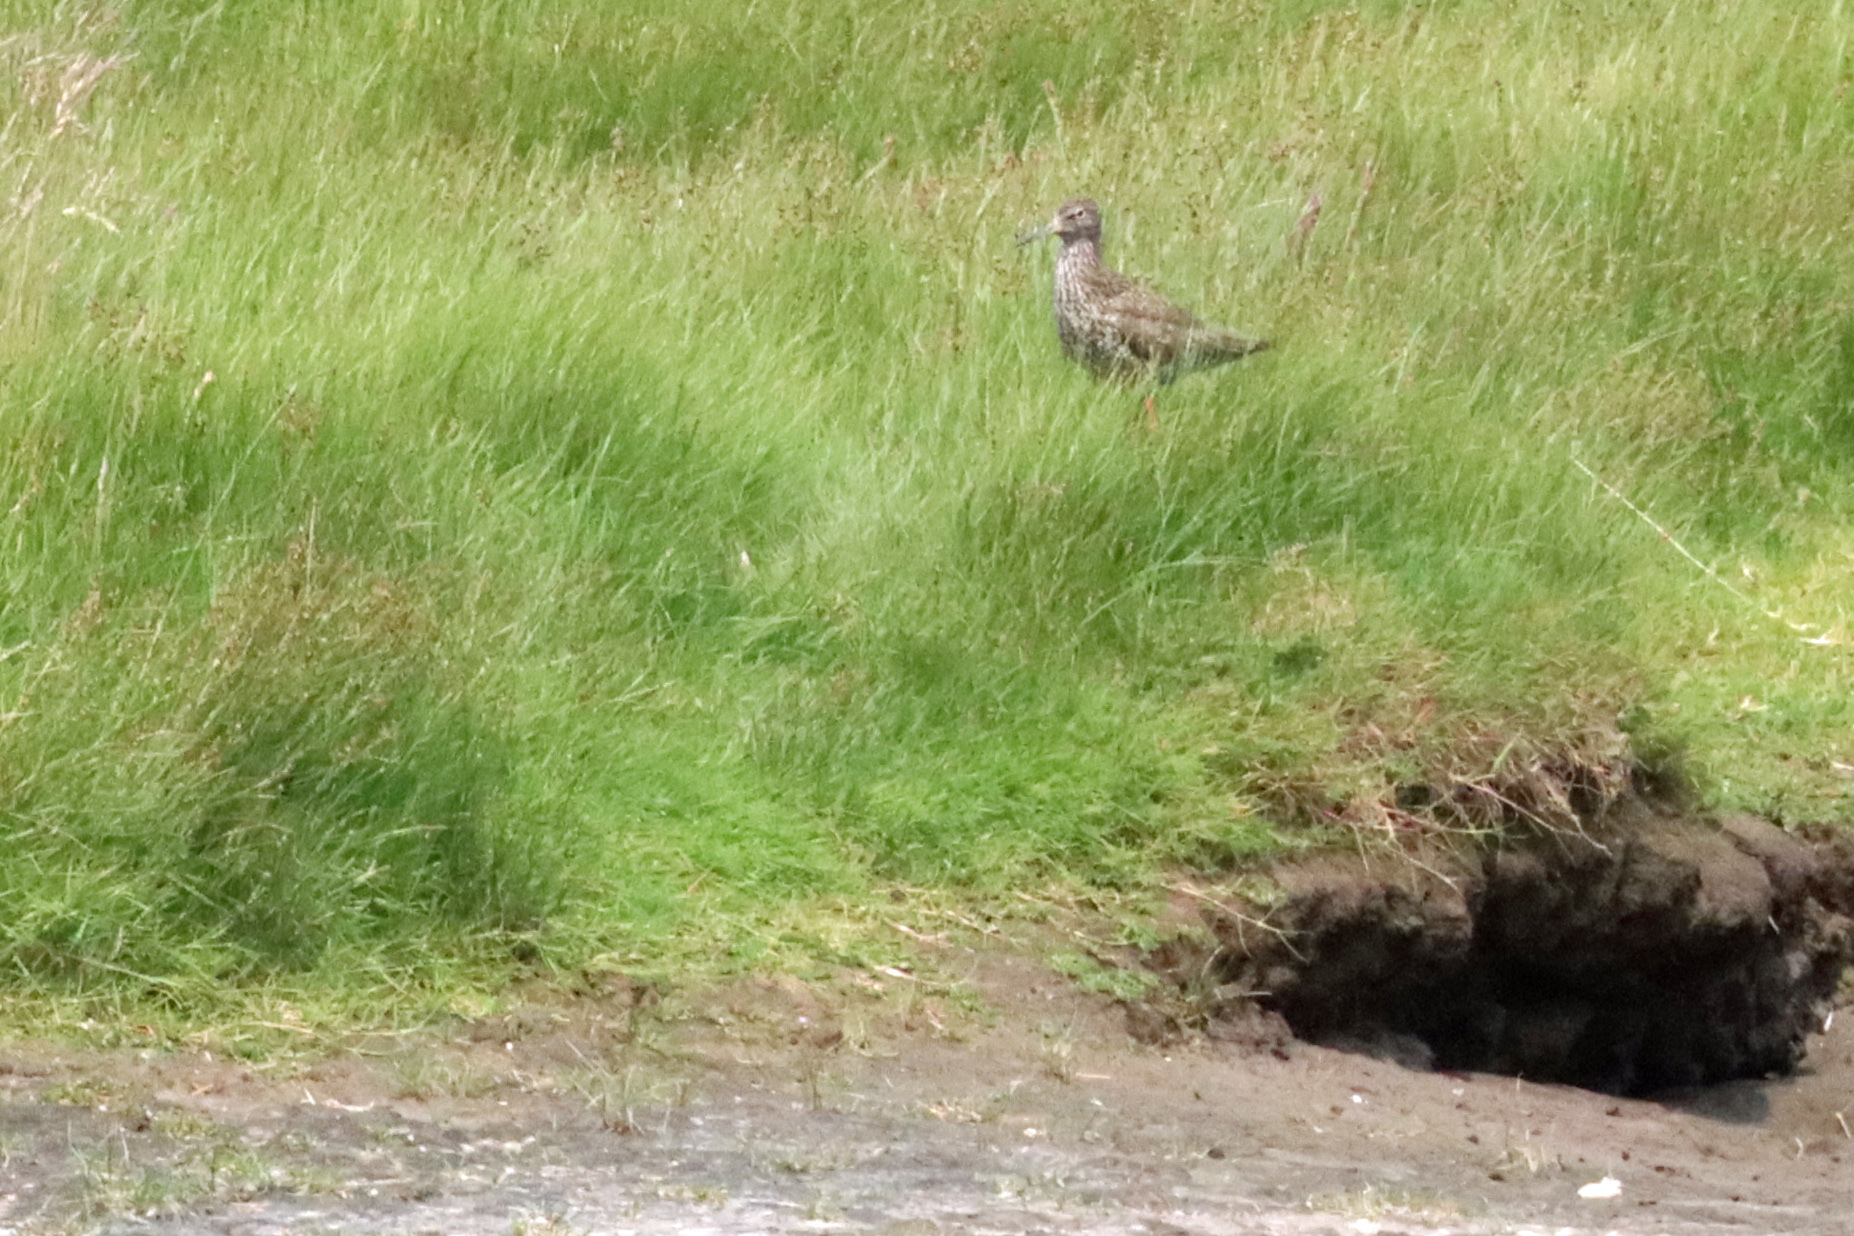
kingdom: Animalia
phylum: Chordata
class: Aves
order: Charadriiformes
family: Scolopacidae
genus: Tringa
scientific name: Tringa totanus
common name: Common redshank
